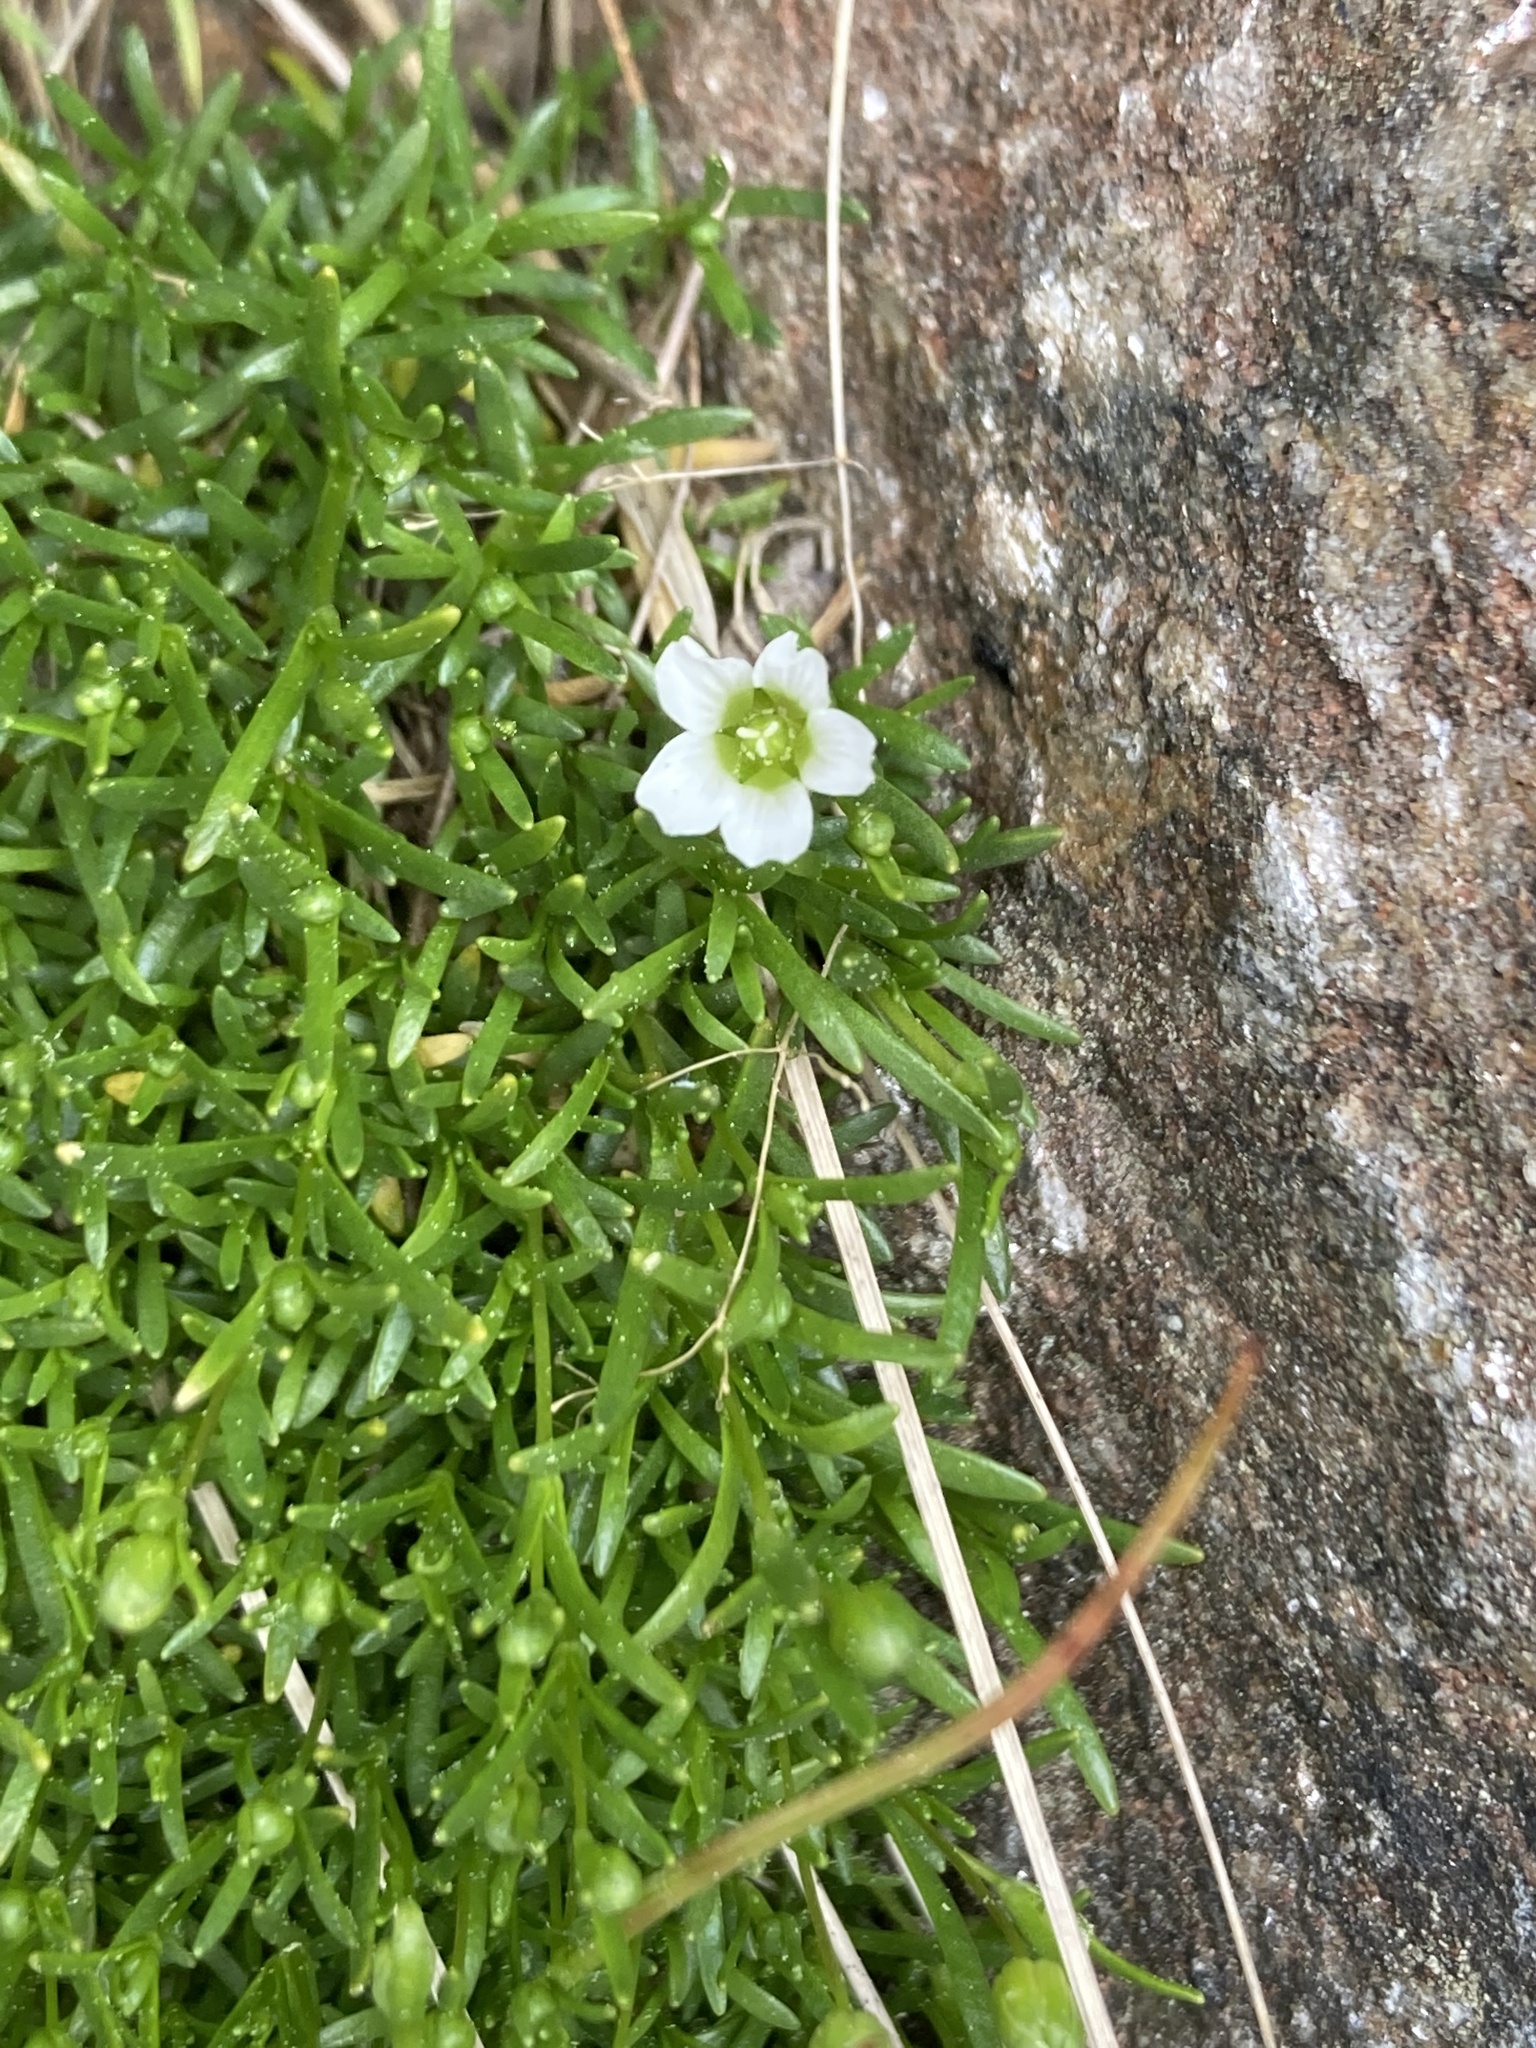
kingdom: Plantae
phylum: Tracheophyta
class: Magnoliopsida
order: Caryophyllales
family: Caryophyllaceae
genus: Geocarpon
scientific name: Geocarpon groenlandicum
